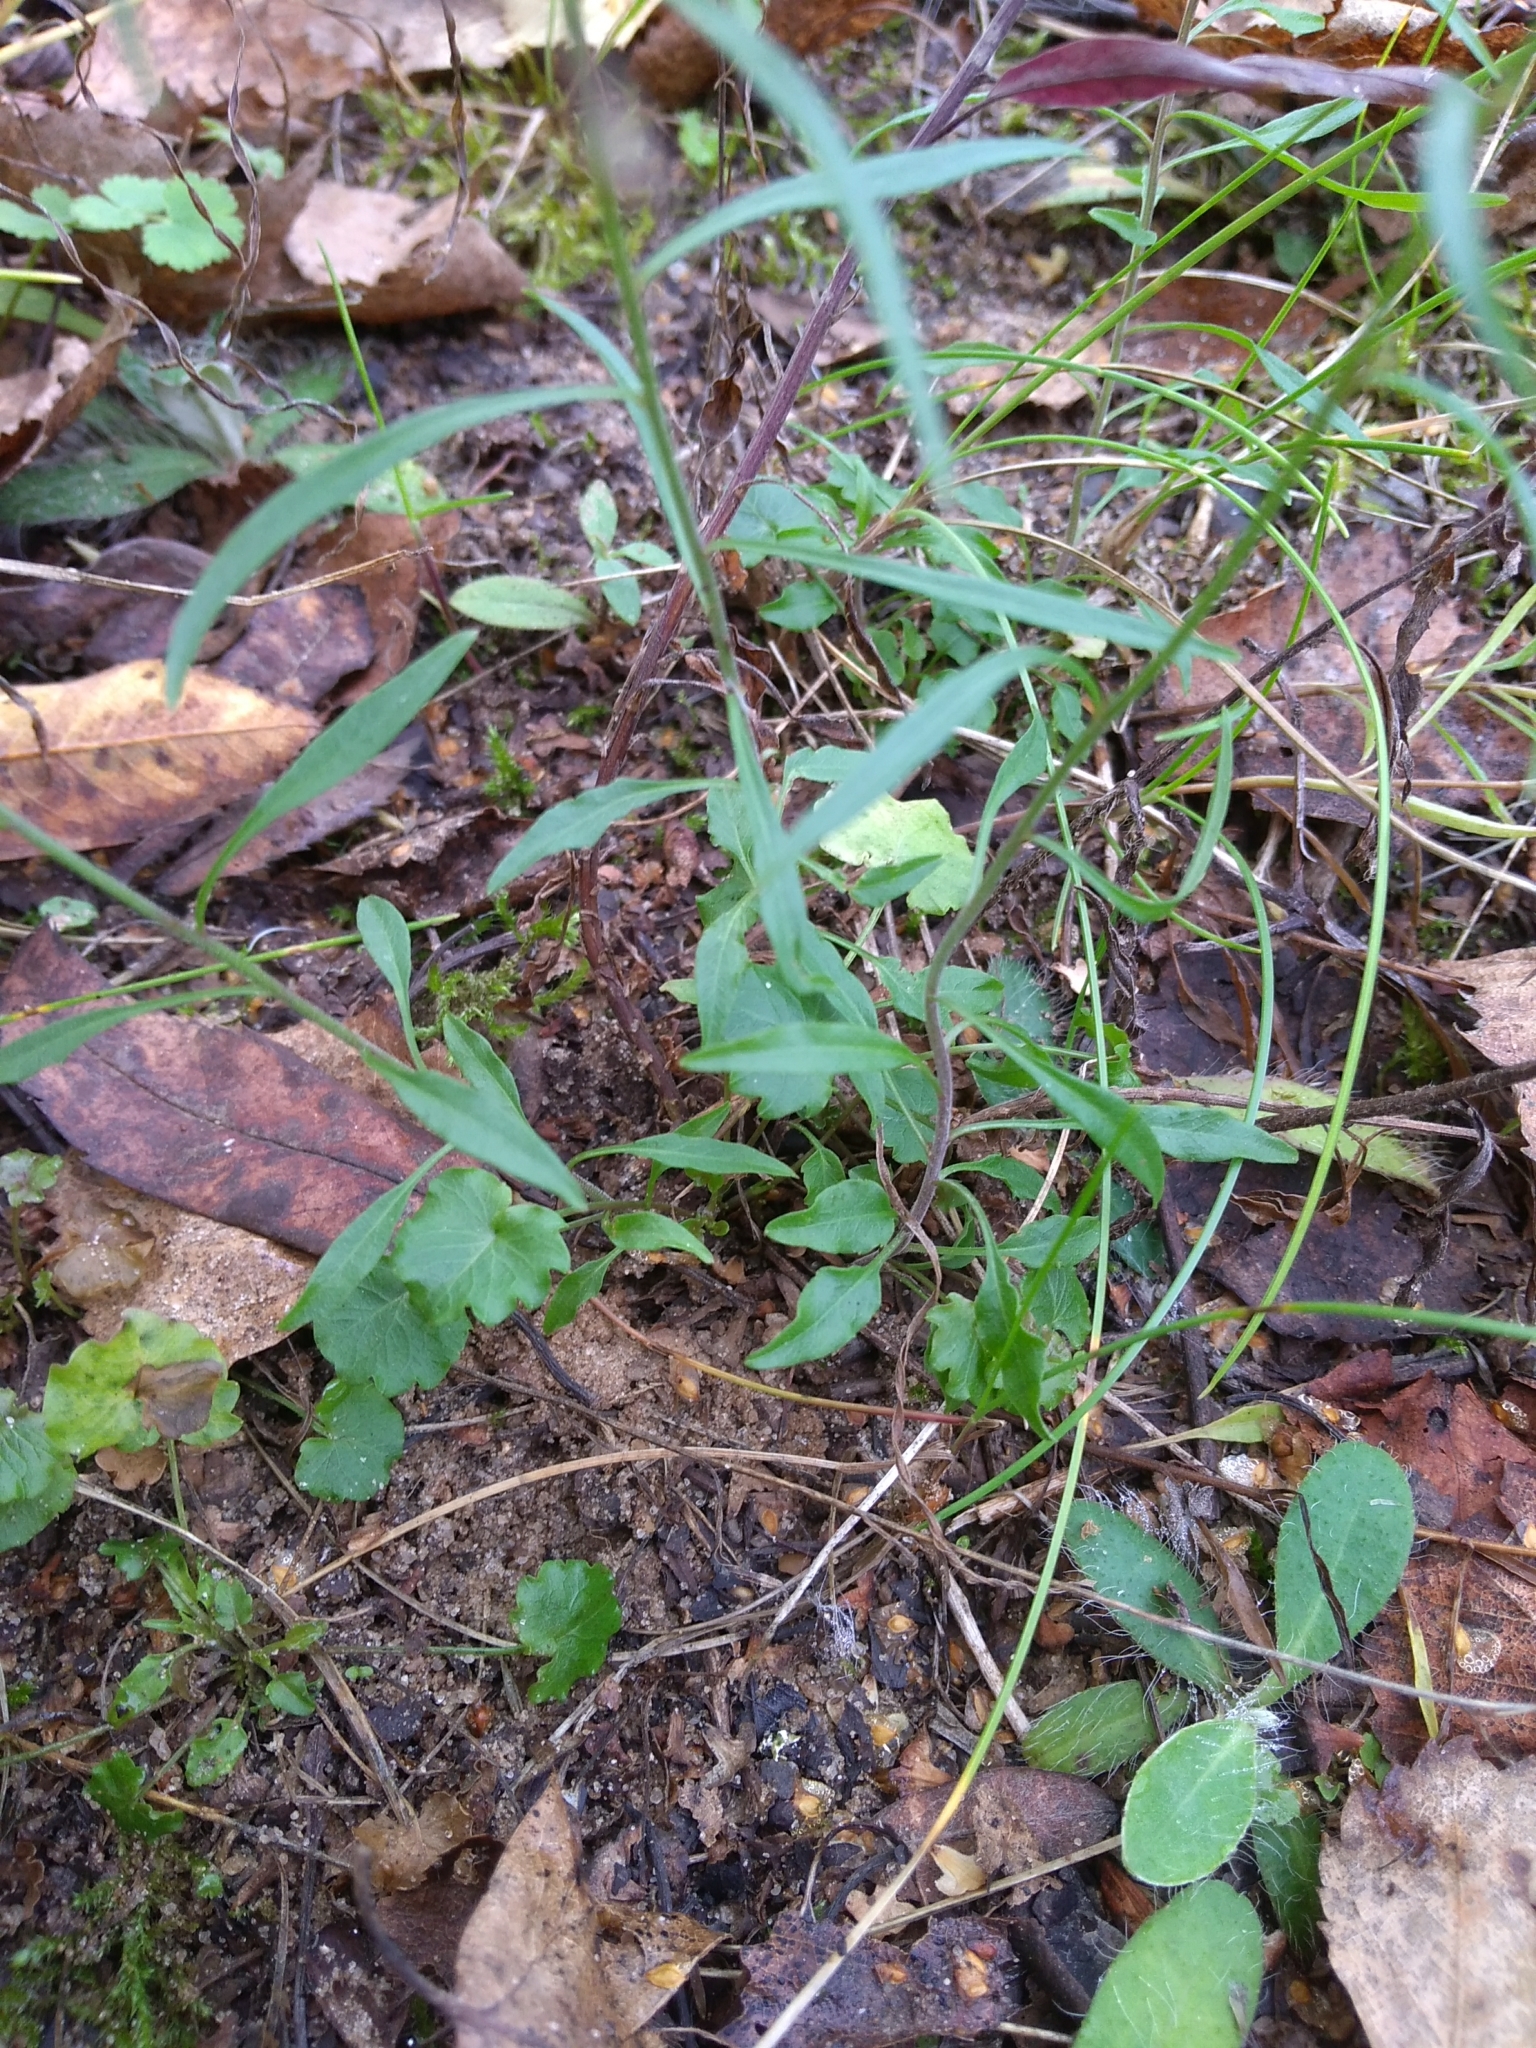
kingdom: Plantae
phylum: Tracheophyta
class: Magnoliopsida
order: Asterales
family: Campanulaceae
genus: Campanula
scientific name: Campanula rotundifolia
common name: Harebell
